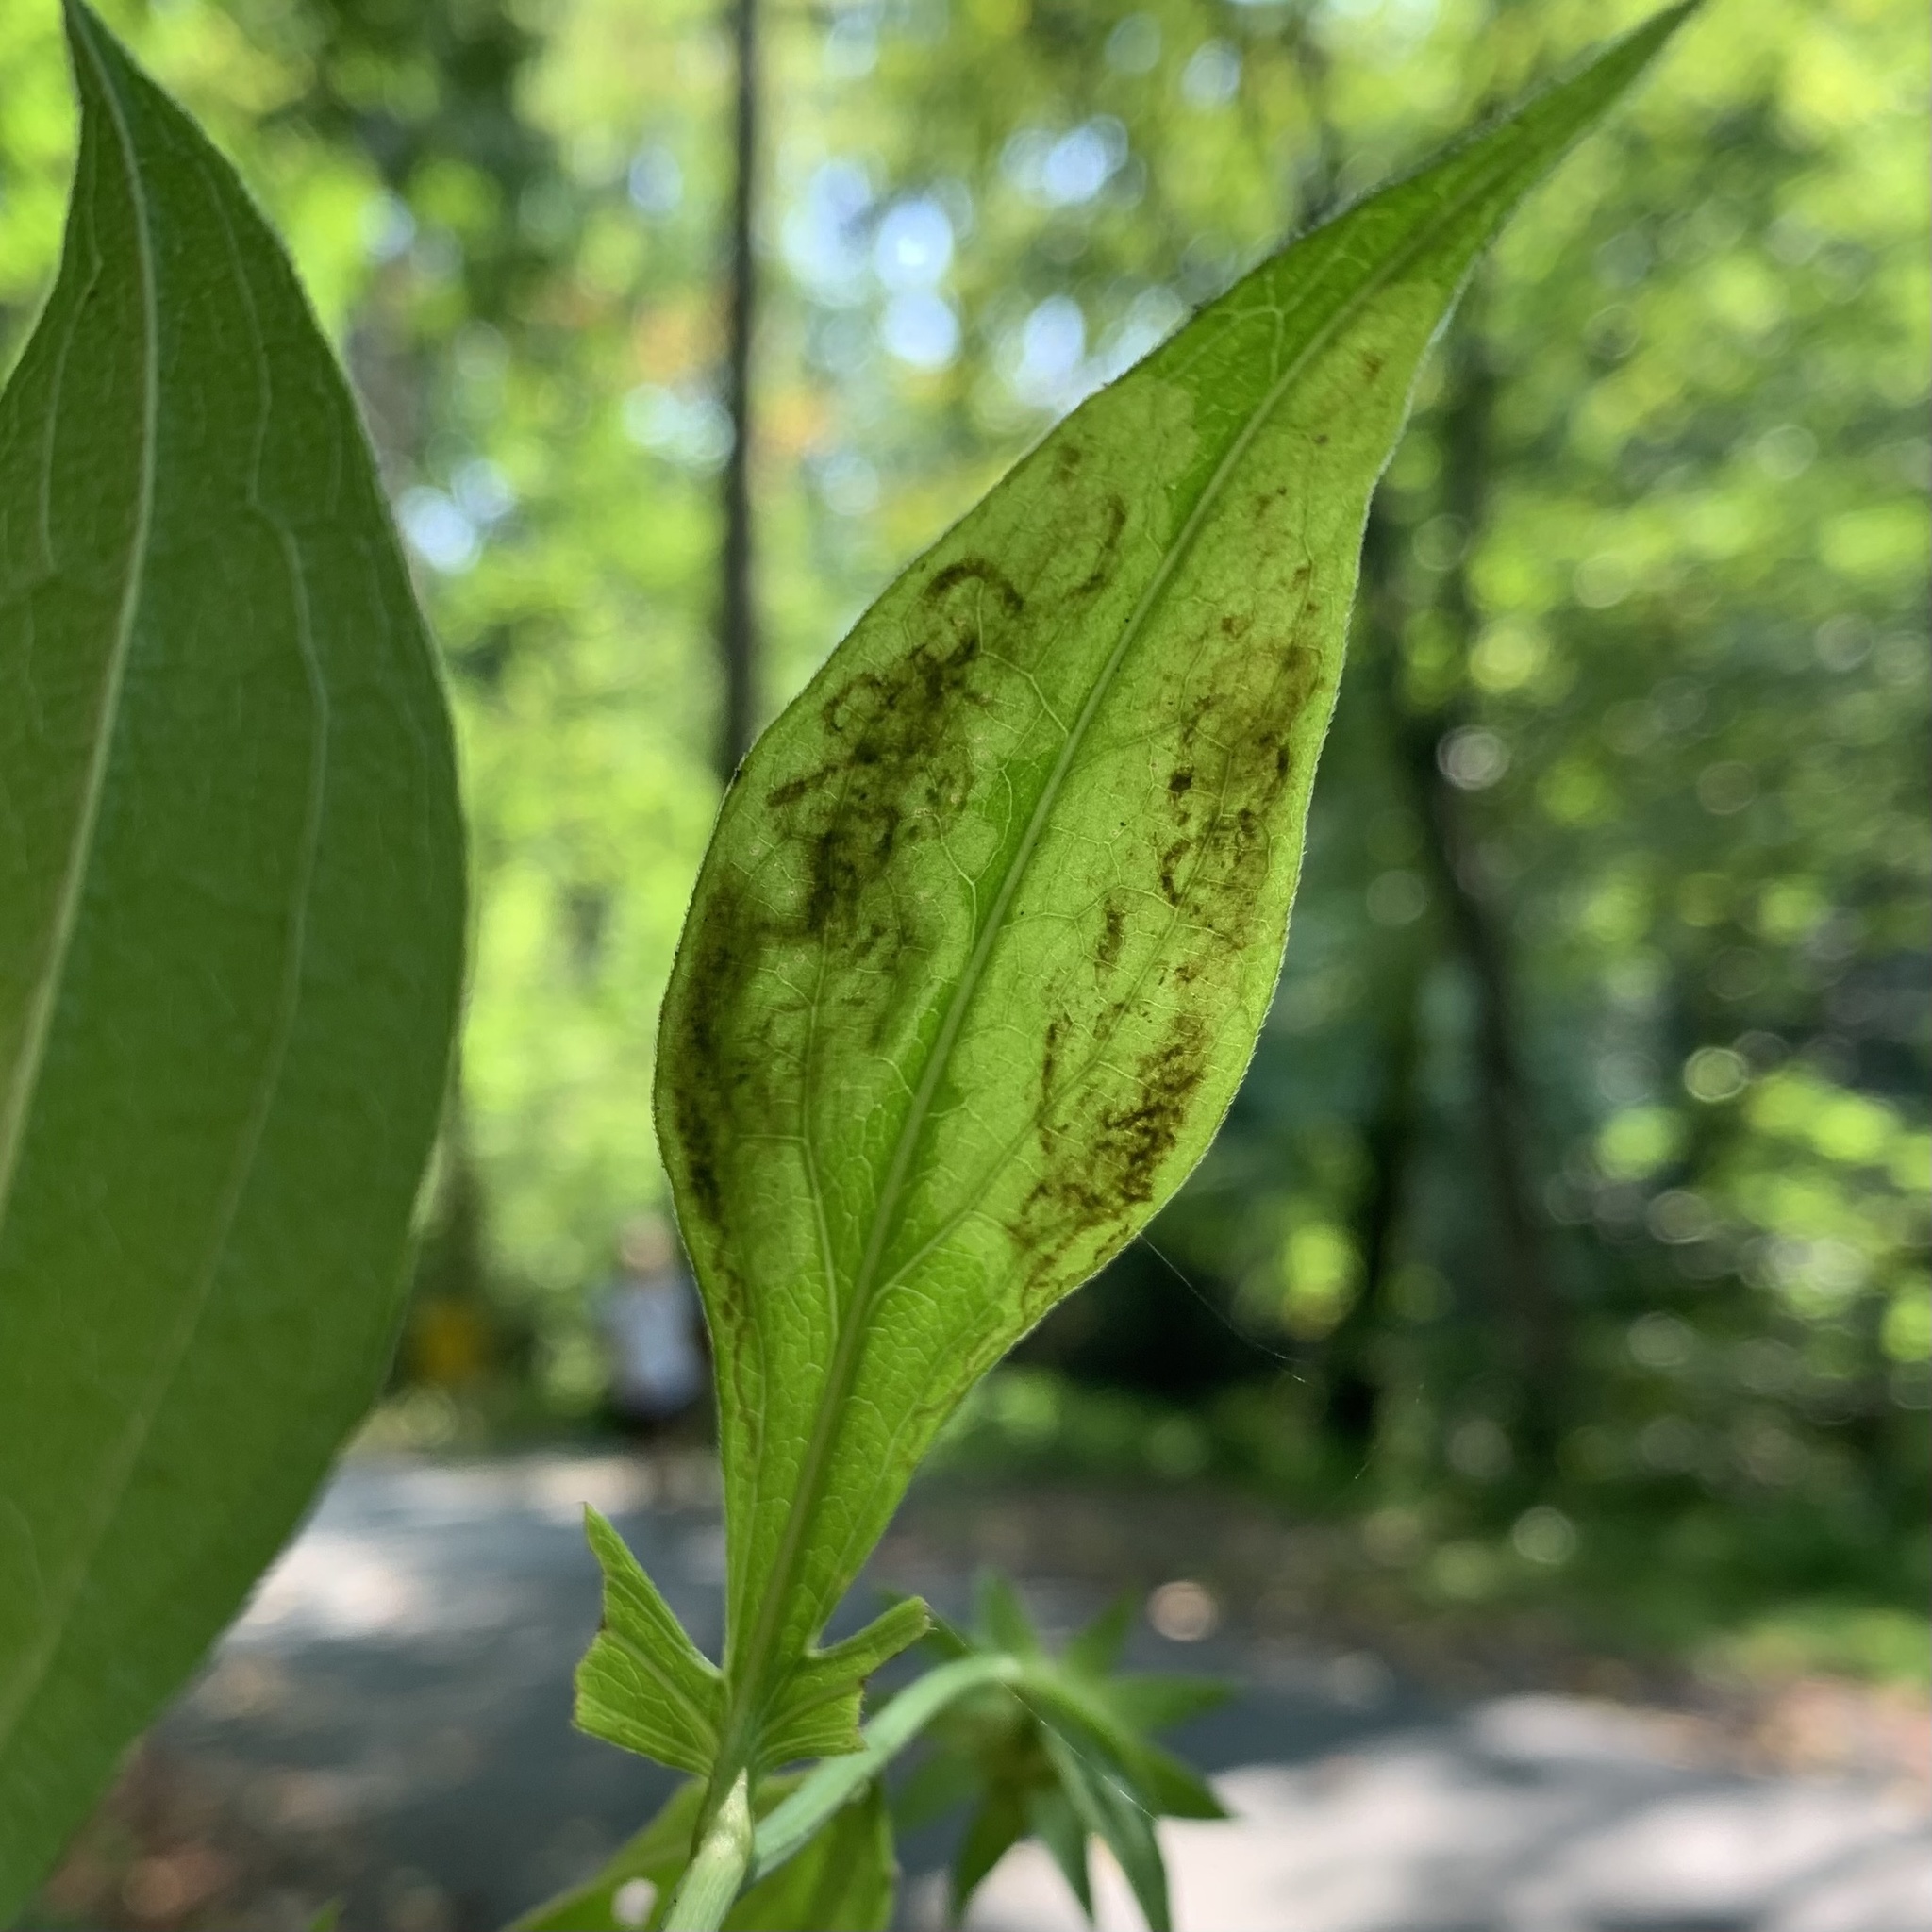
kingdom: Animalia
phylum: Arthropoda
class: Insecta
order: Diptera
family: Agromyzidae
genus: Calycomyza
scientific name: Calycomyza frickiana
